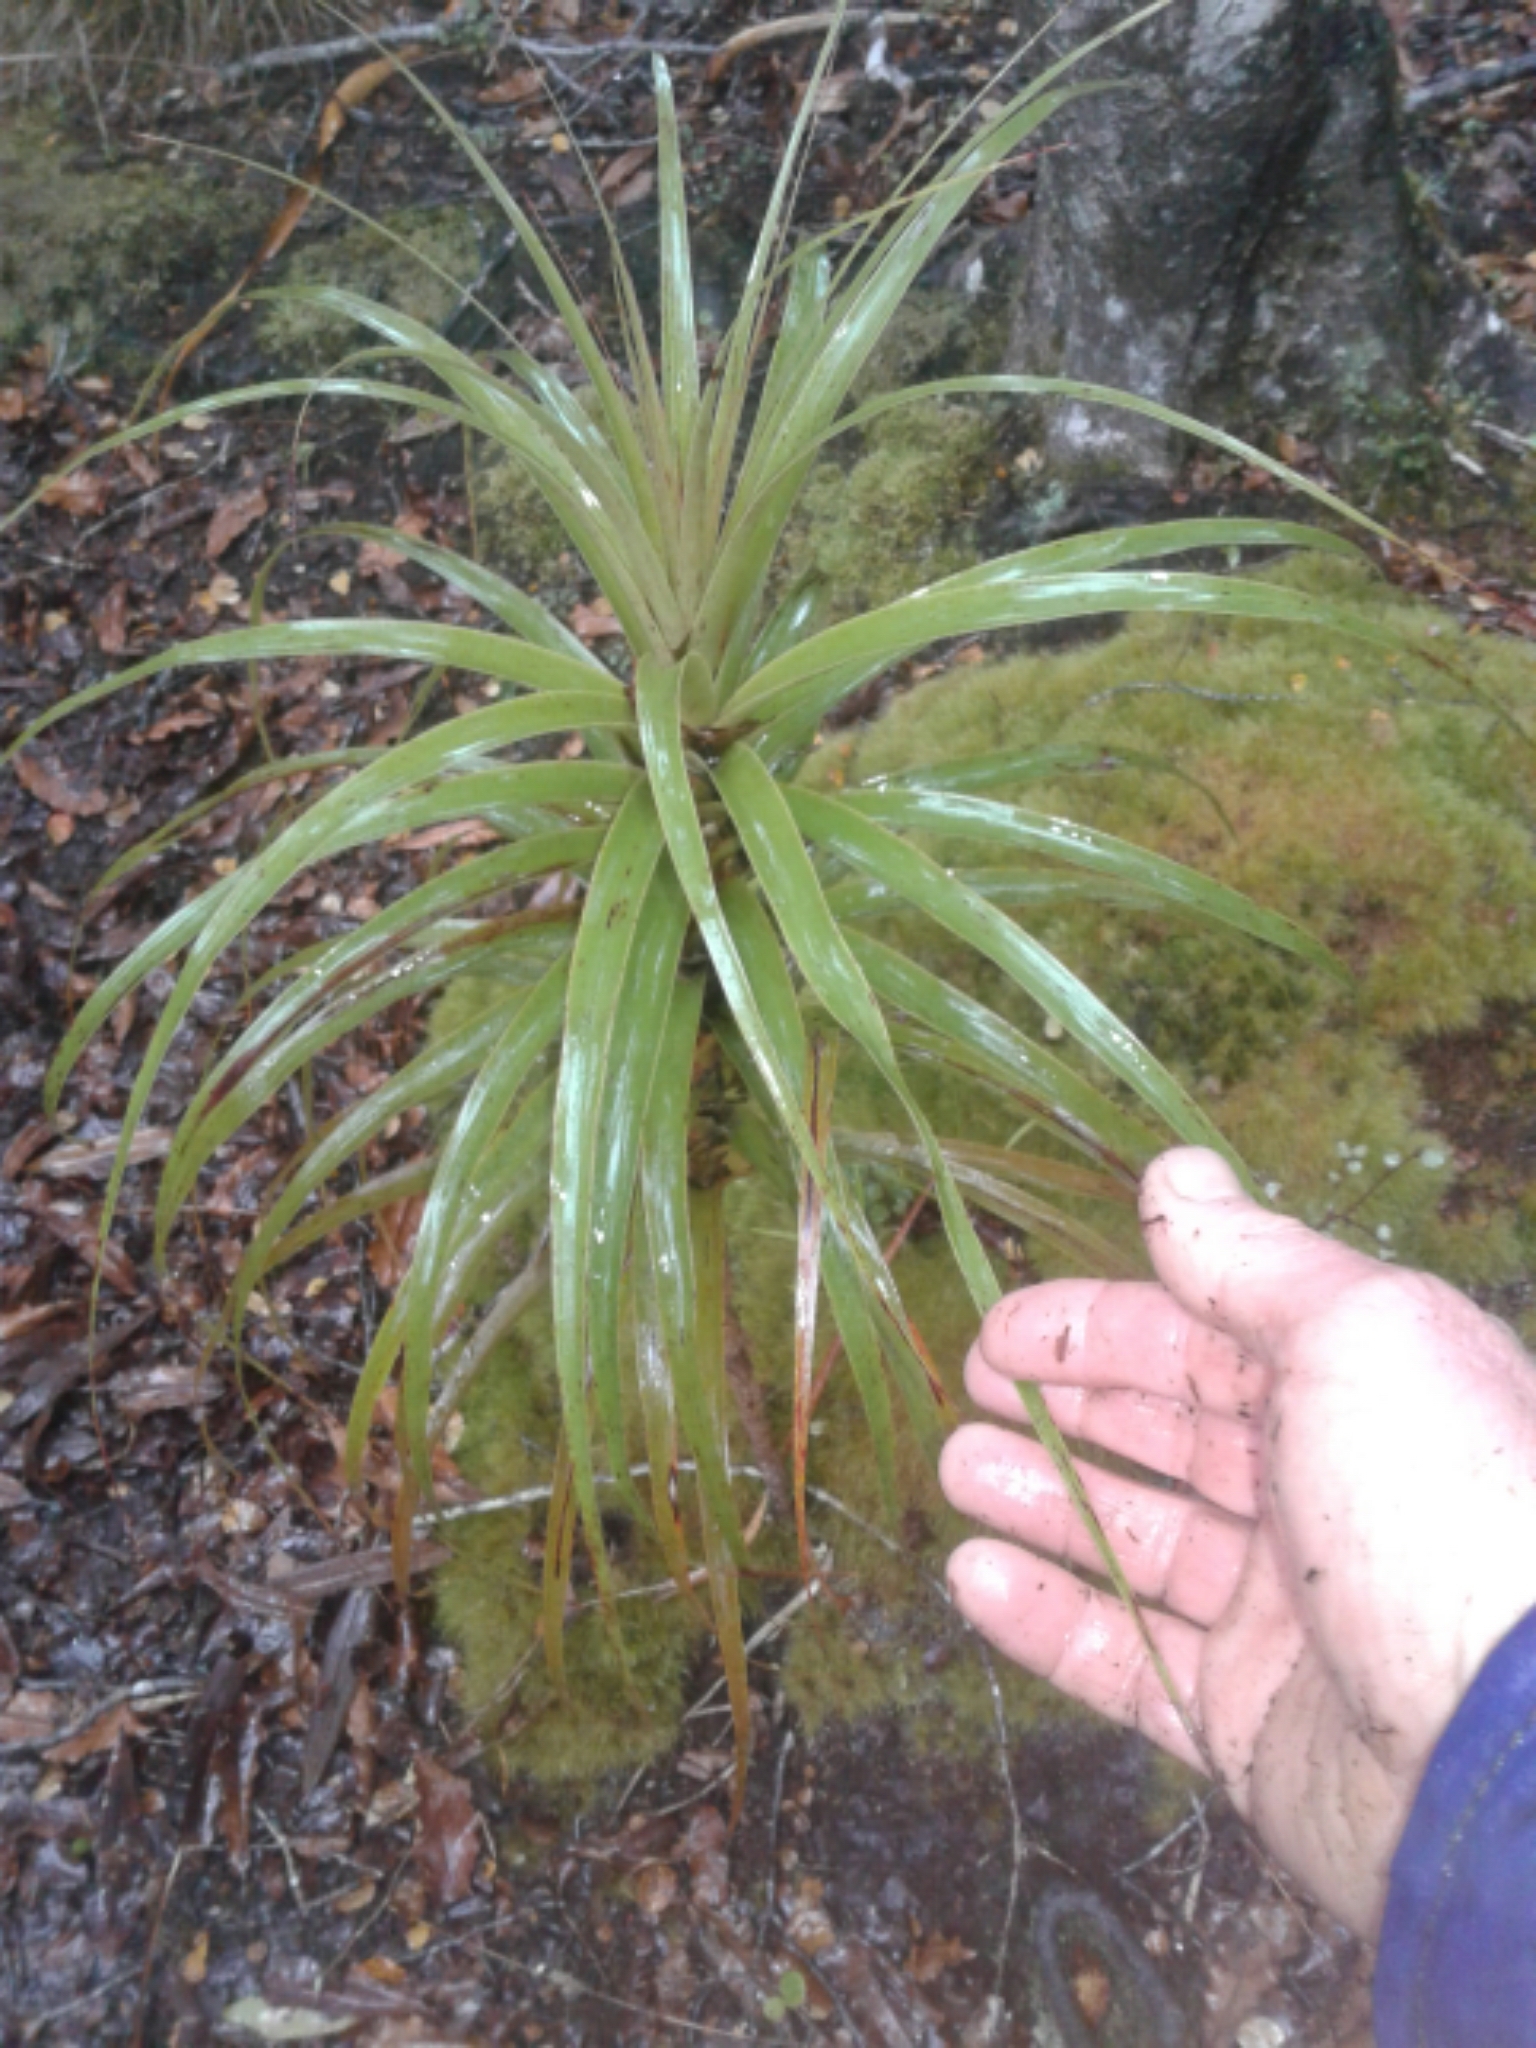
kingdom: Plantae
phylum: Tracheophyta
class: Magnoliopsida
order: Ericales
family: Ericaceae
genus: Dracophyllum
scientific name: Dracophyllum
